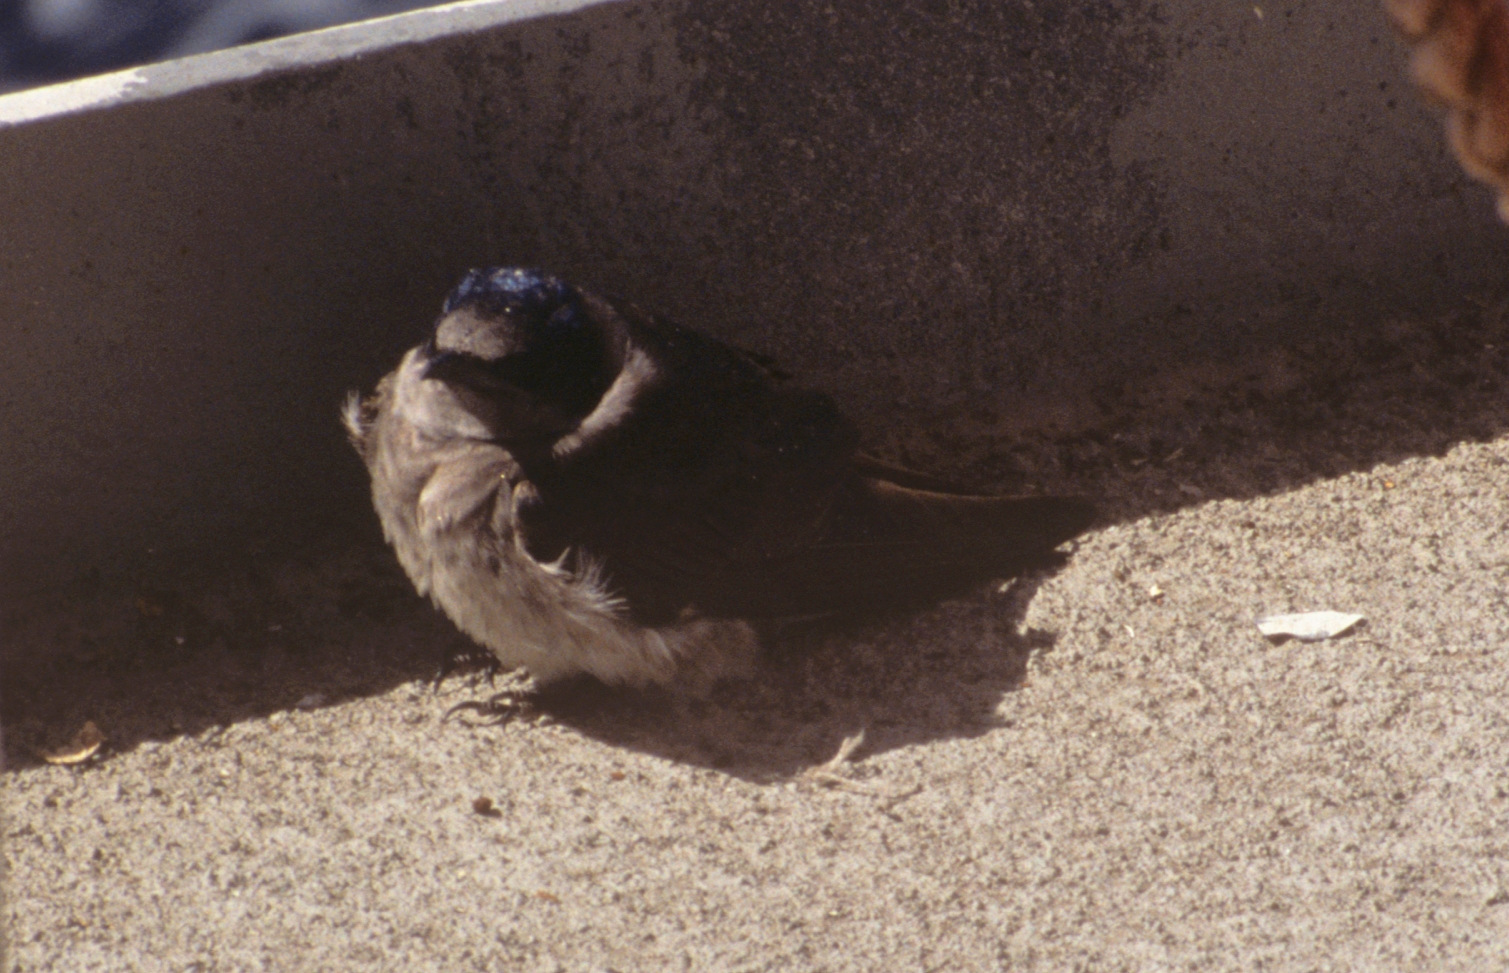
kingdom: Animalia
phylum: Chordata
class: Aves
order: Passeriformes
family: Hirundinidae
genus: Progne
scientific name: Progne subis
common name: Purple martin
